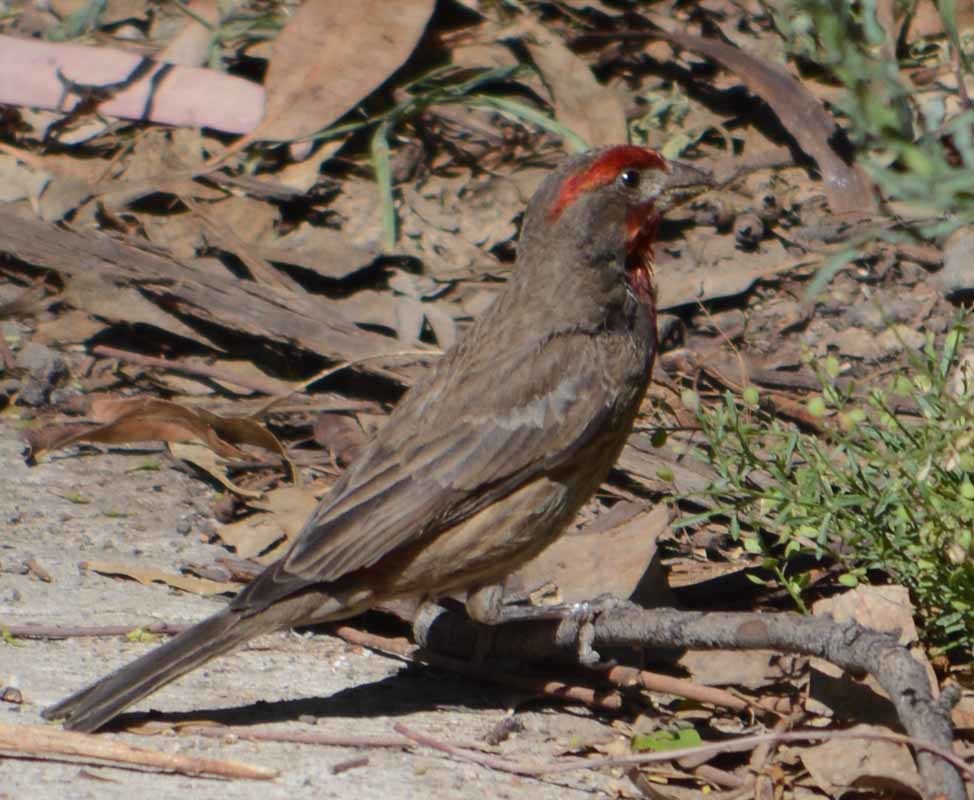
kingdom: Animalia
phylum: Chordata
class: Aves
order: Passeriformes
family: Fringillidae
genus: Haemorhous
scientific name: Haemorhous mexicanus
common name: House finch
